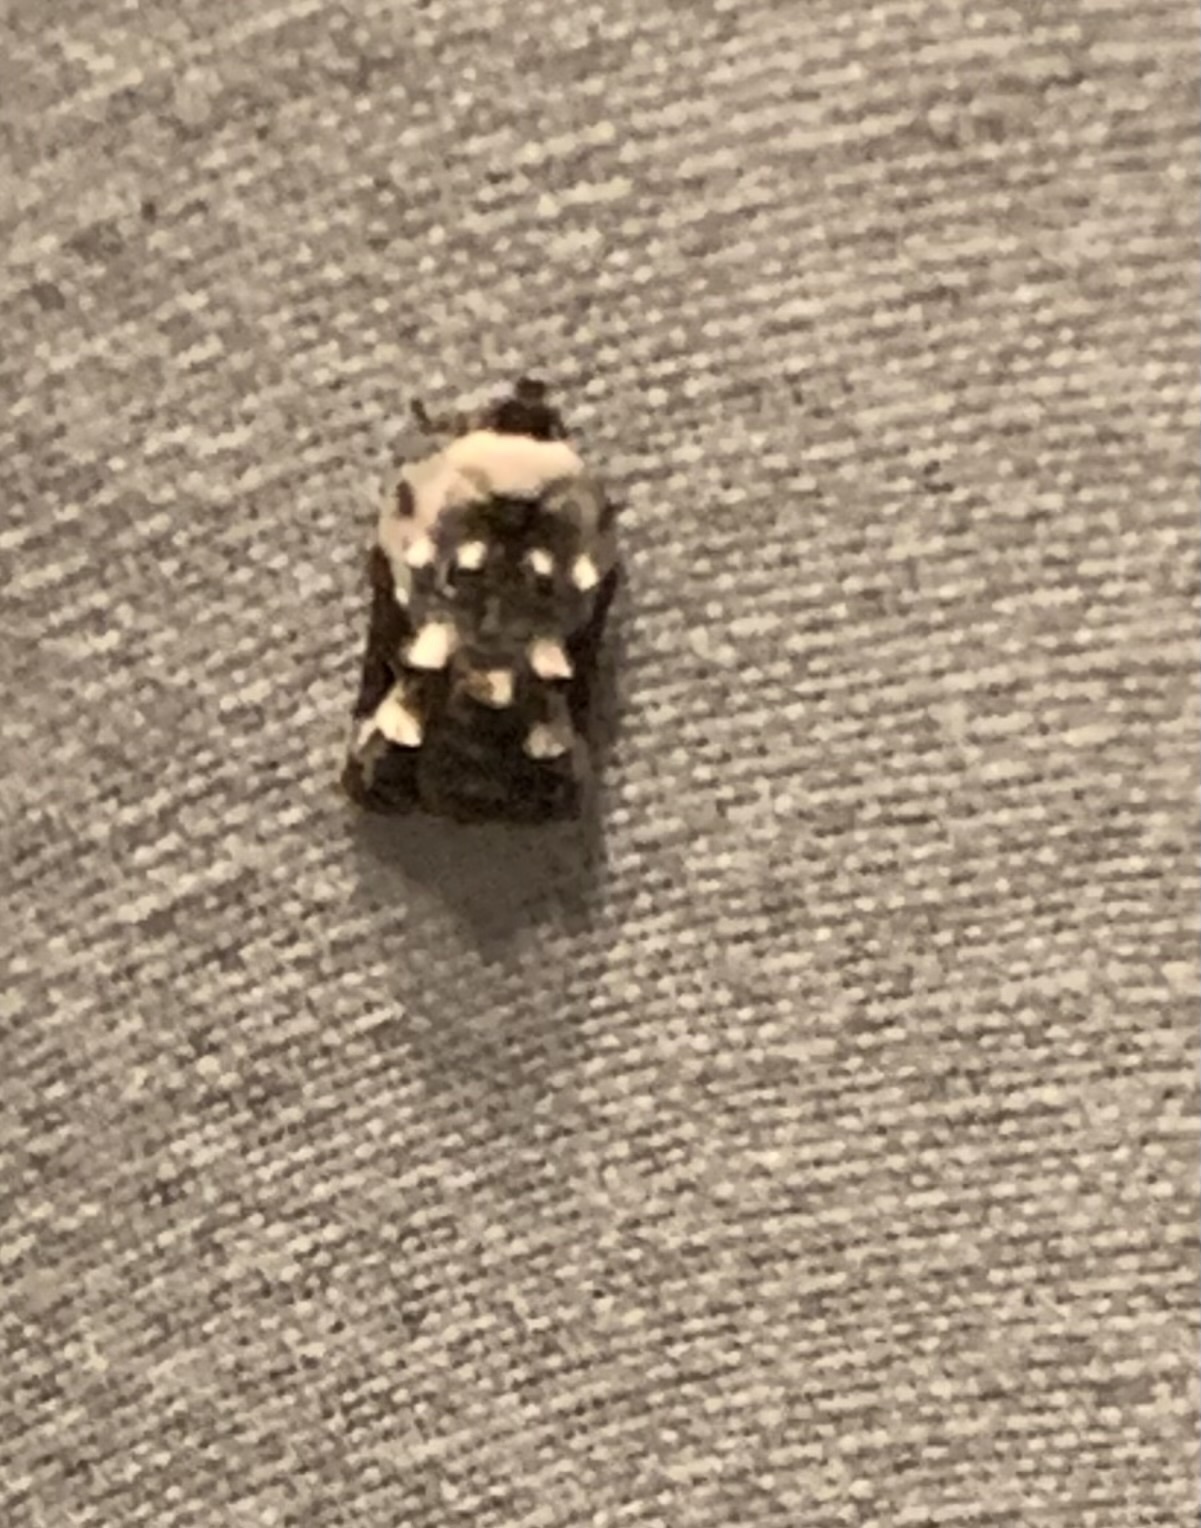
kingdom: Animalia
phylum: Arthropoda
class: Insecta
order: Lepidoptera
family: Tortricidae
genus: Acleris
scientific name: Acleris nivisellana
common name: Snowy-shouldered acleris moth
